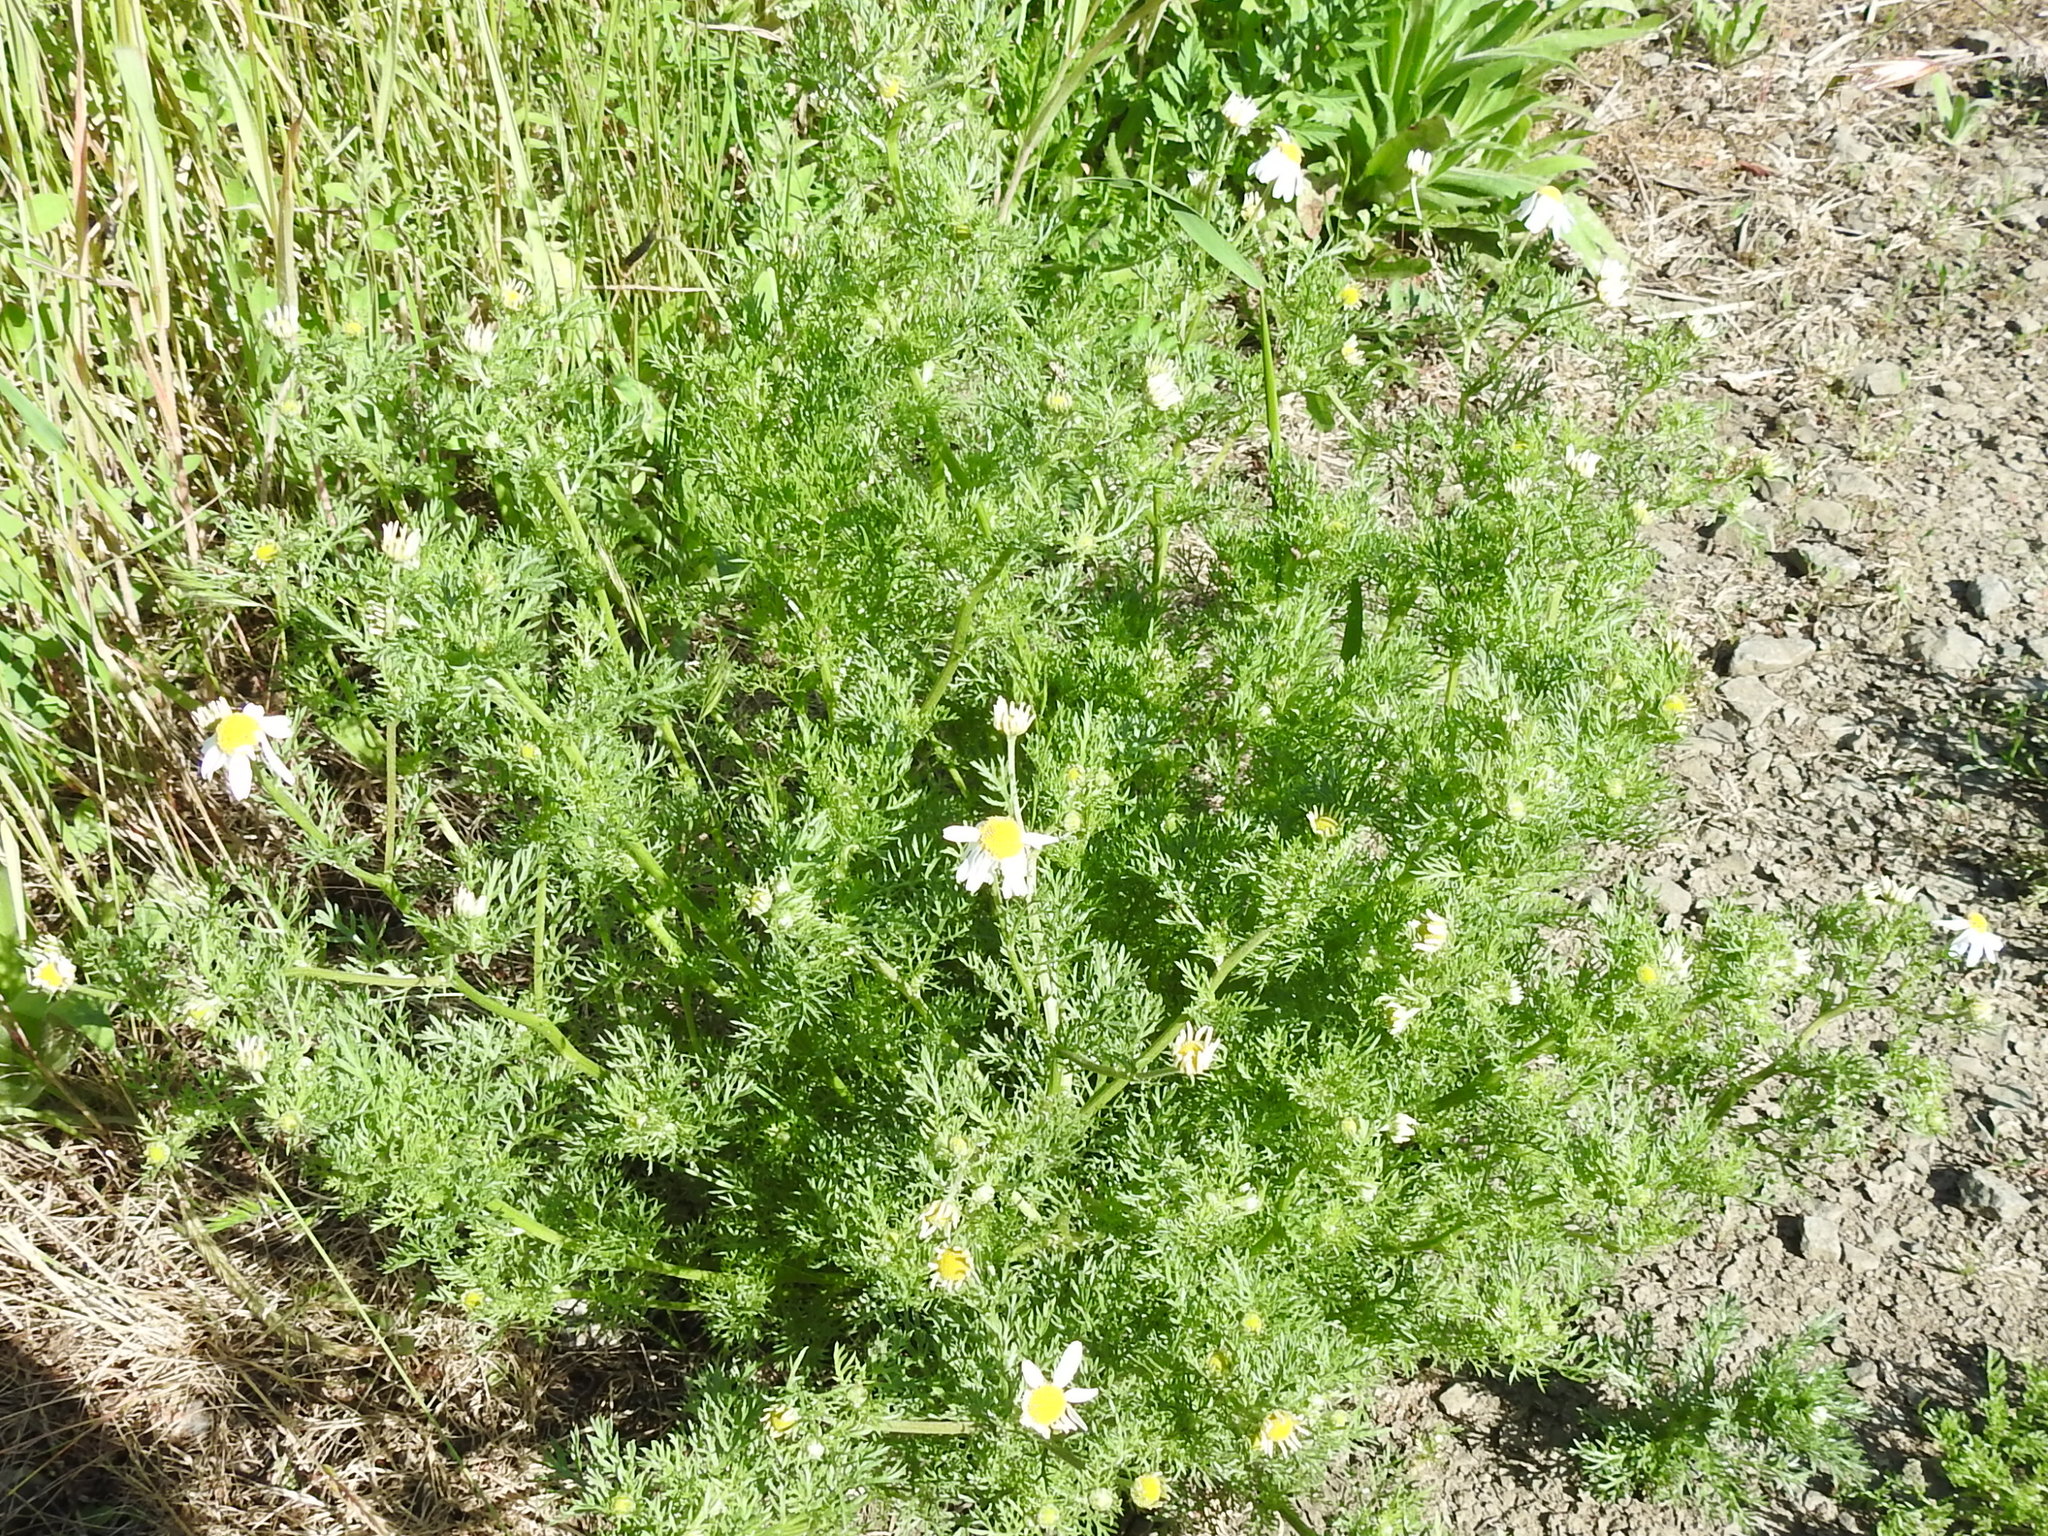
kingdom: Plantae
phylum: Tracheophyta
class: Magnoliopsida
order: Asterales
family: Asteraceae
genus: Anthemis
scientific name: Anthemis cotula
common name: Stinking chamomile
